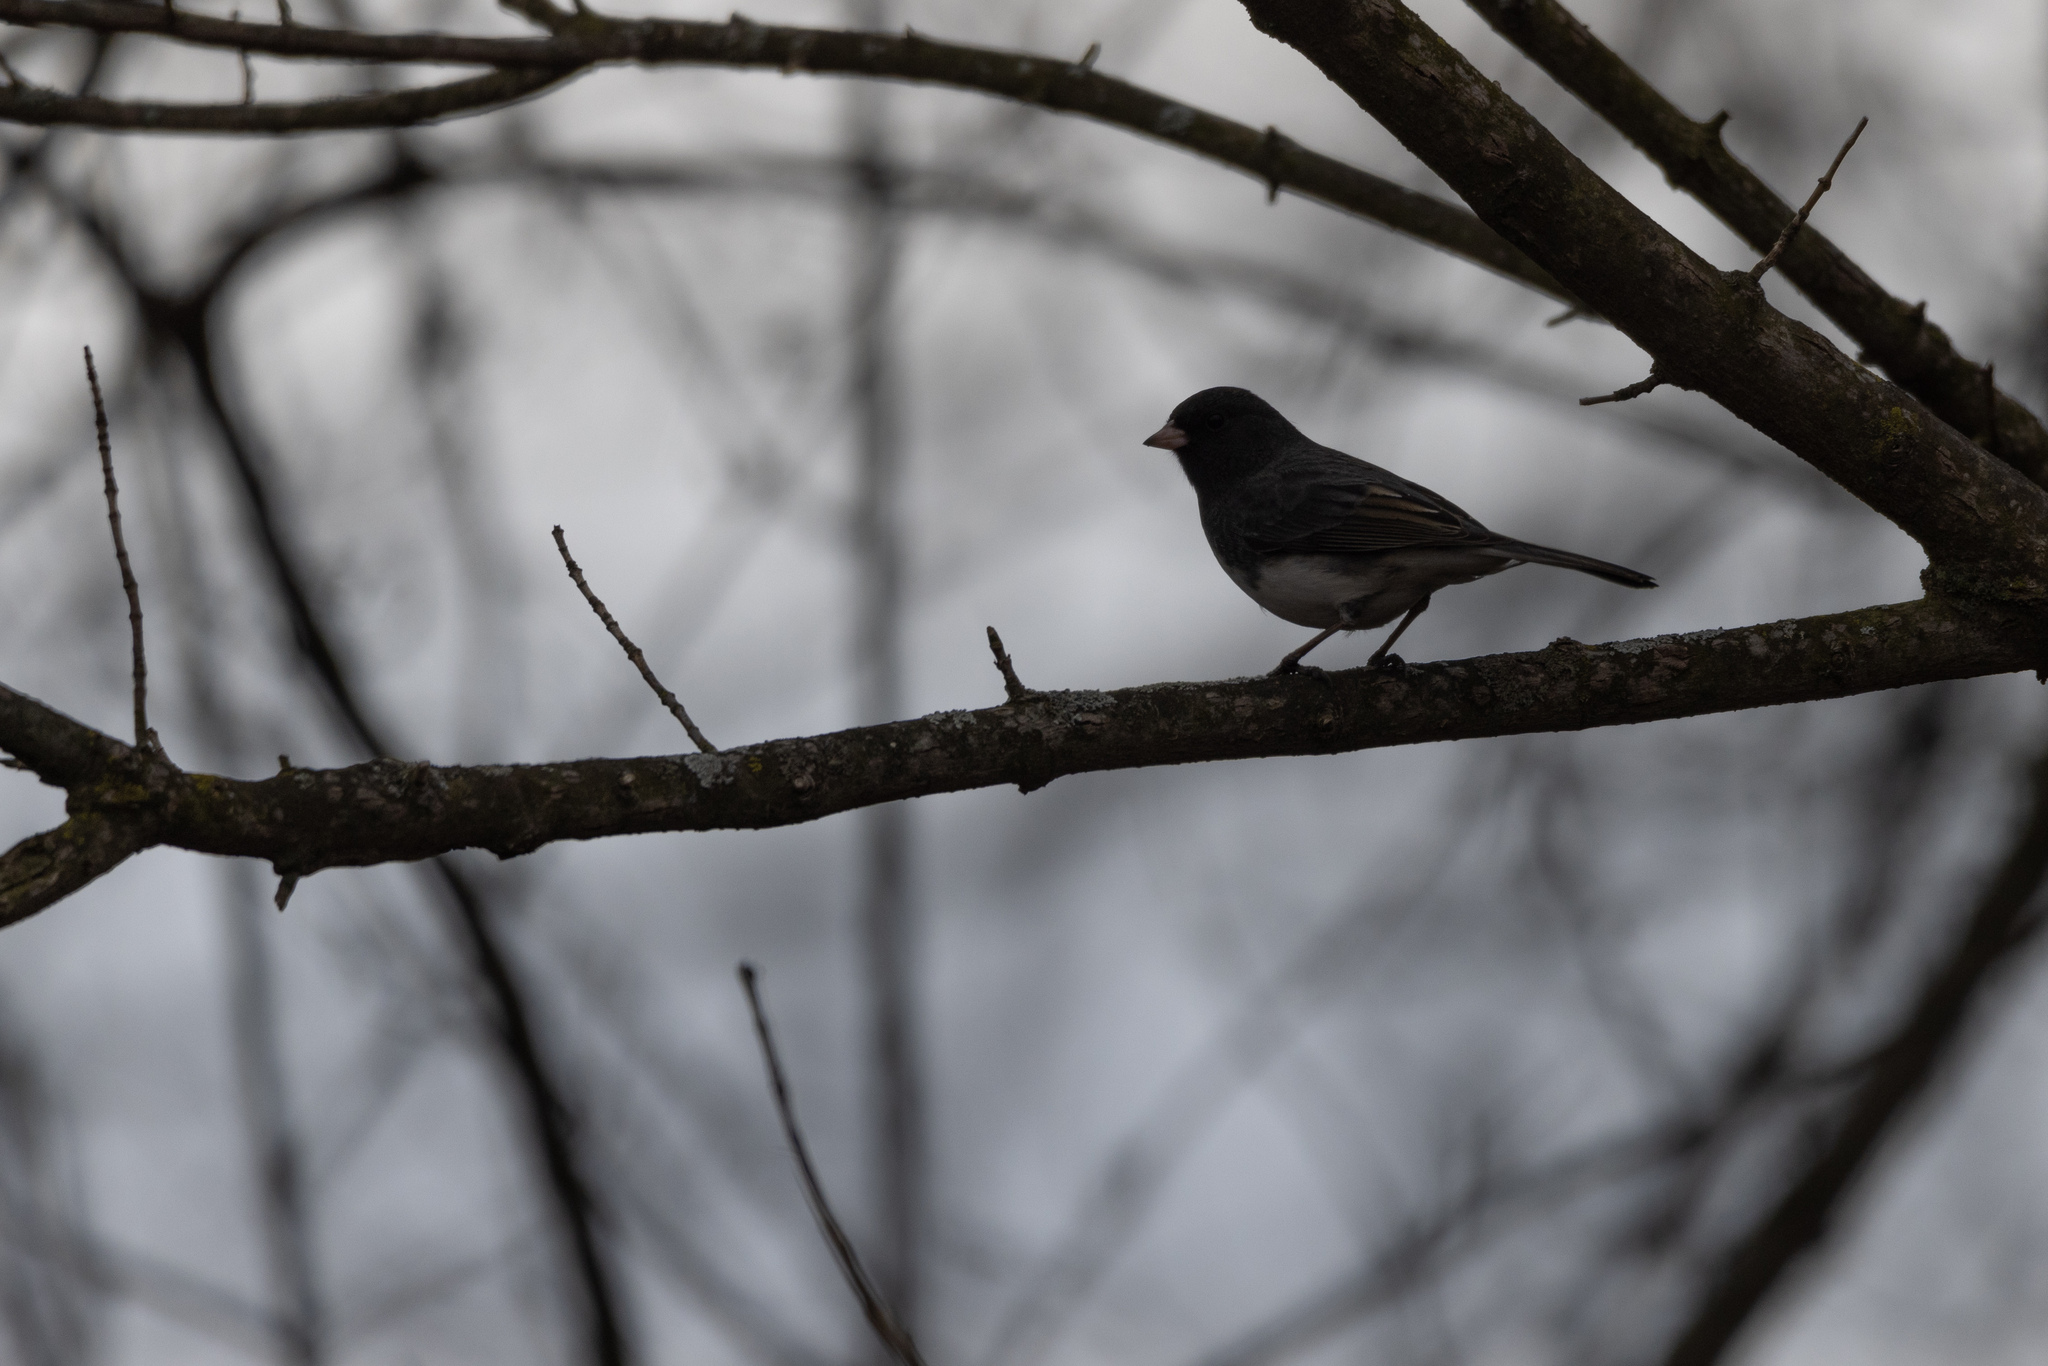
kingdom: Animalia
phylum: Chordata
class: Aves
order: Passeriformes
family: Passerellidae
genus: Junco
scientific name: Junco hyemalis
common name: Dark-eyed junco
